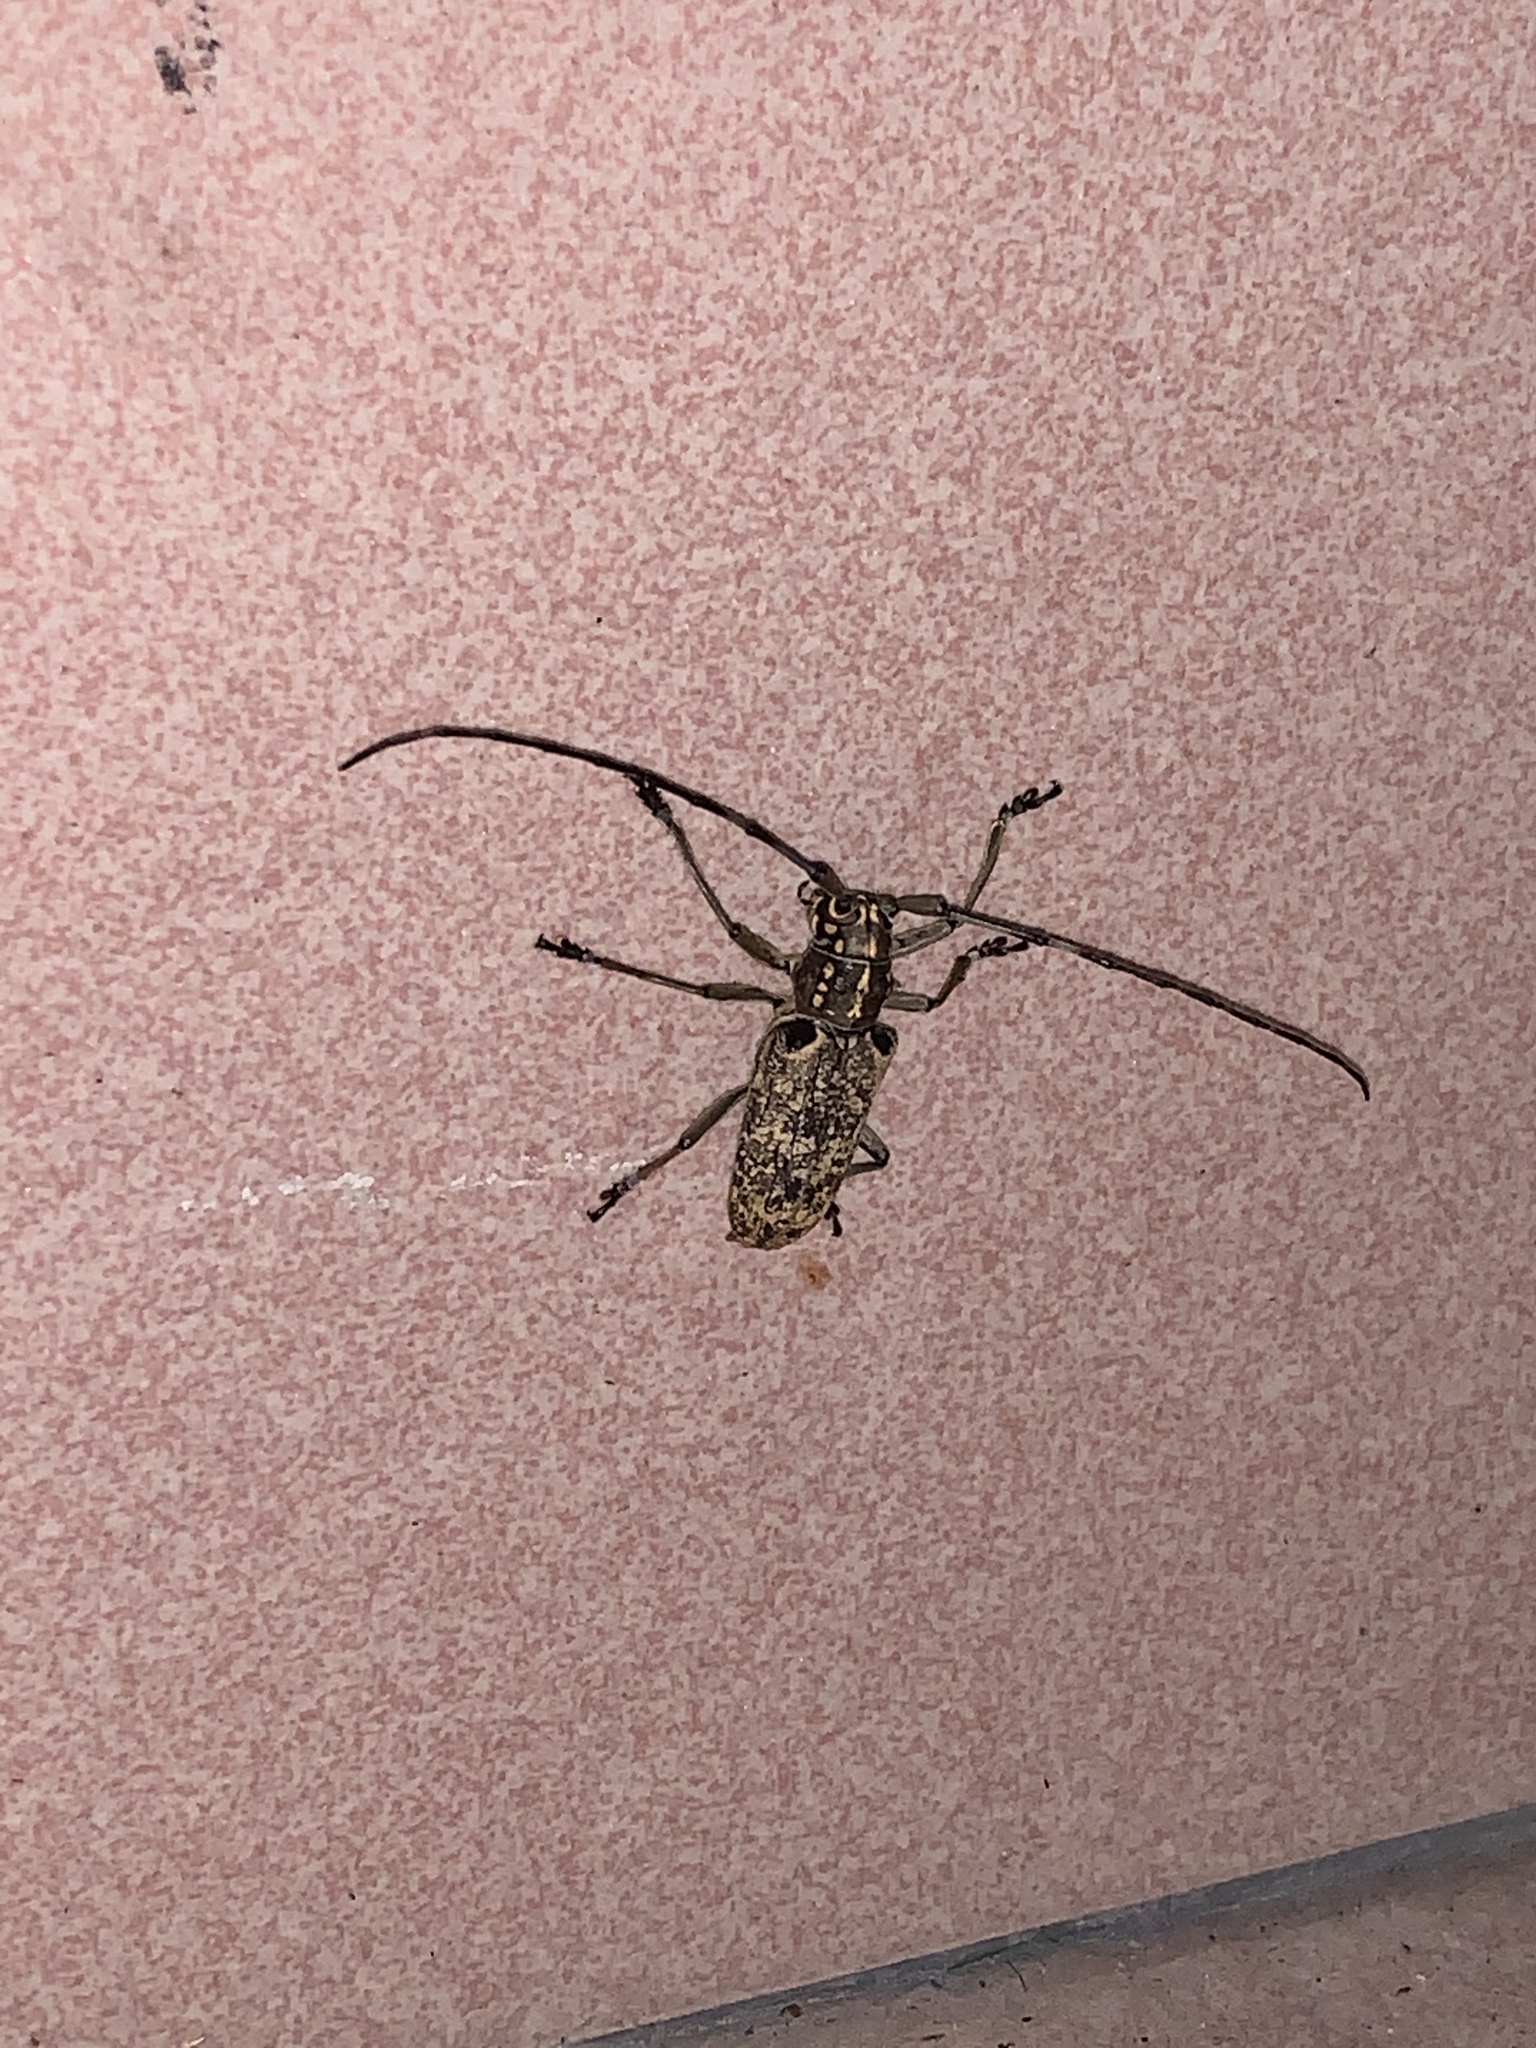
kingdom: Animalia
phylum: Arthropoda
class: Insecta
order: Coleoptera
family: Cerambycidae
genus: Epepeotes
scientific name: Epepeotes luscus
